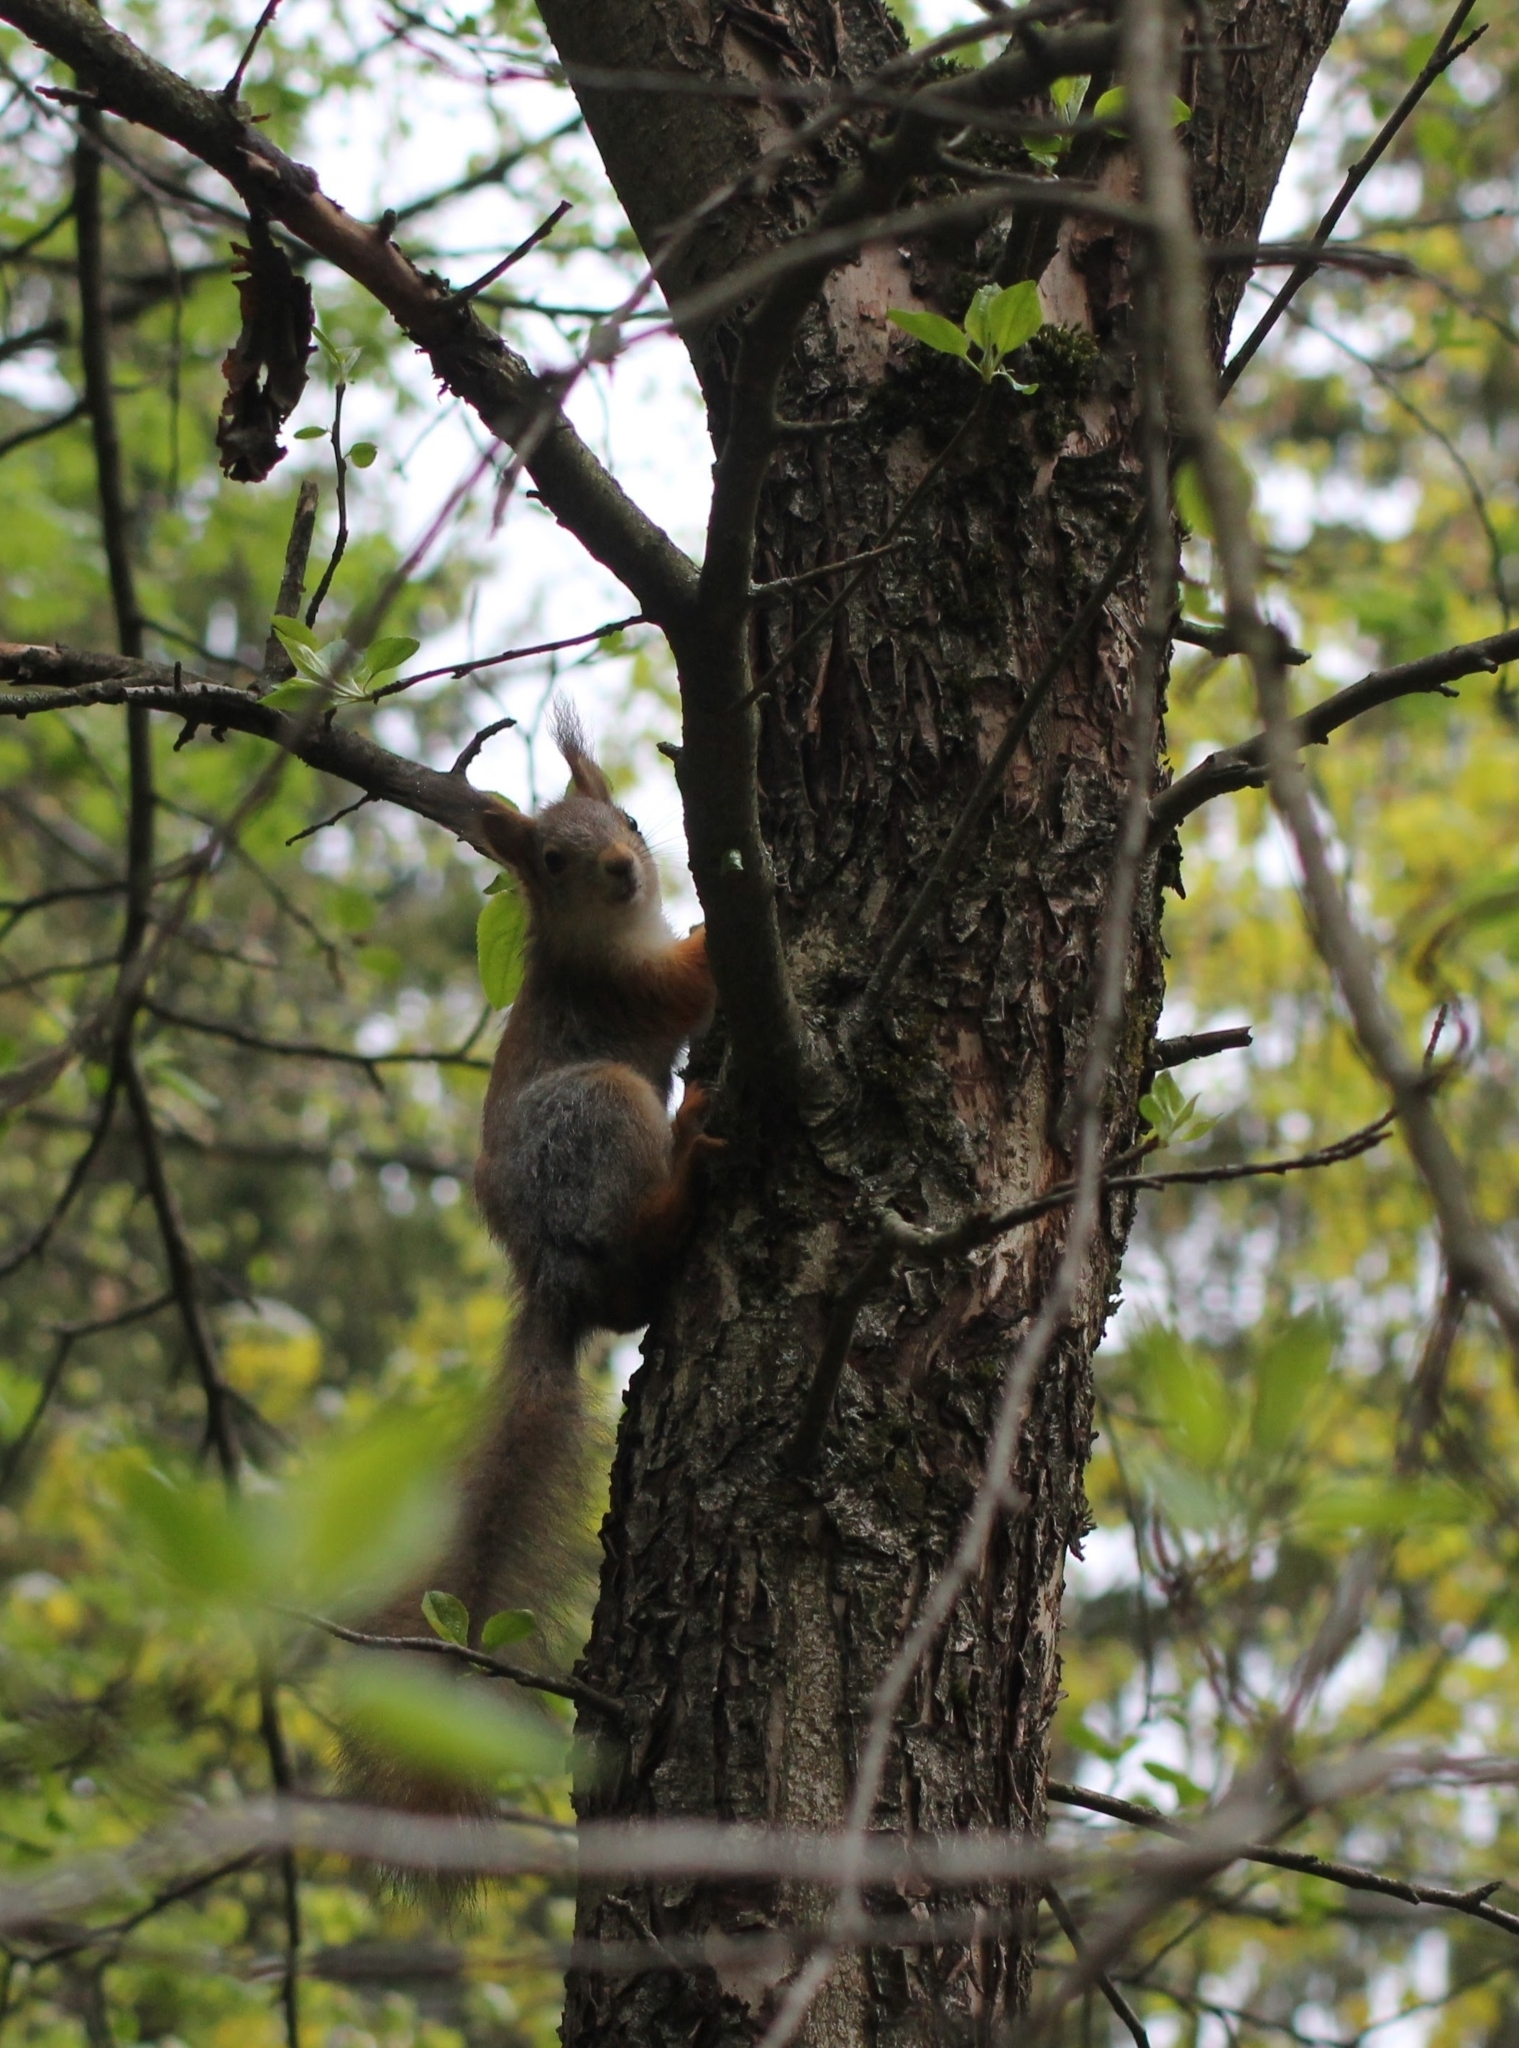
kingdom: Animalia
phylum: Chordata
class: Mammalia
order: Rodentia
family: Sciuridae
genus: Sciurus
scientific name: Sciurus vulgaris
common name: Eurasian red squirrel
